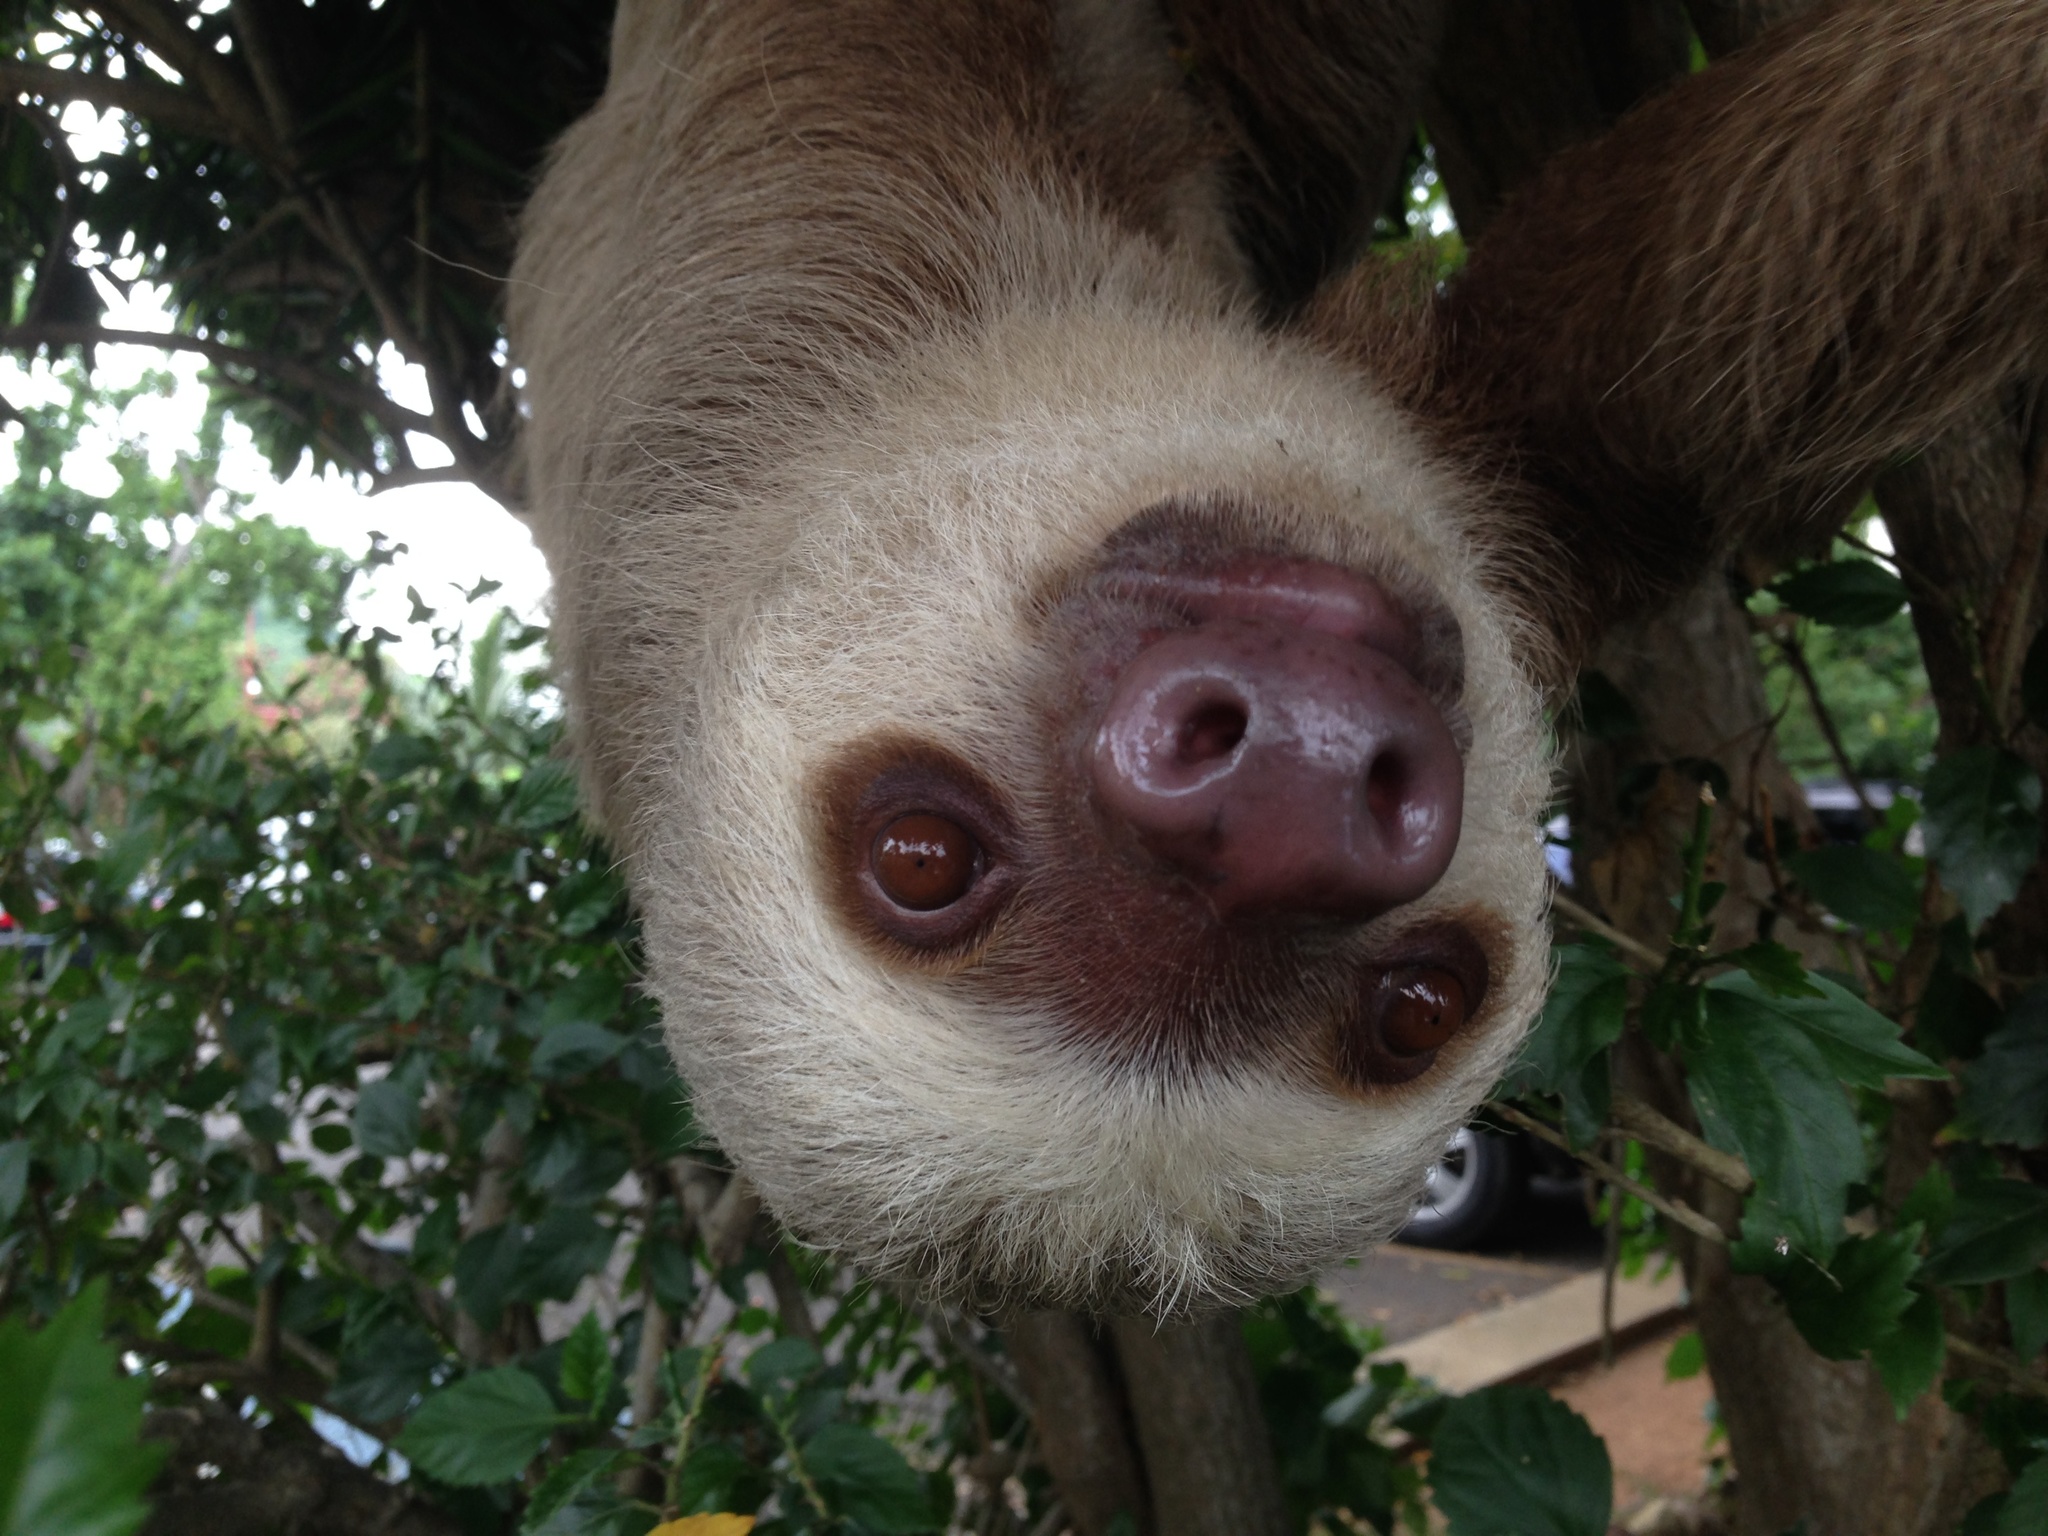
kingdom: Animalia
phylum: Chordata
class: Mammalia
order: Pilosa
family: Megalonychidae
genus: Choloepus
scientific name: Choloepus hoffmanni
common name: Hoffmann's two-toed sloth
